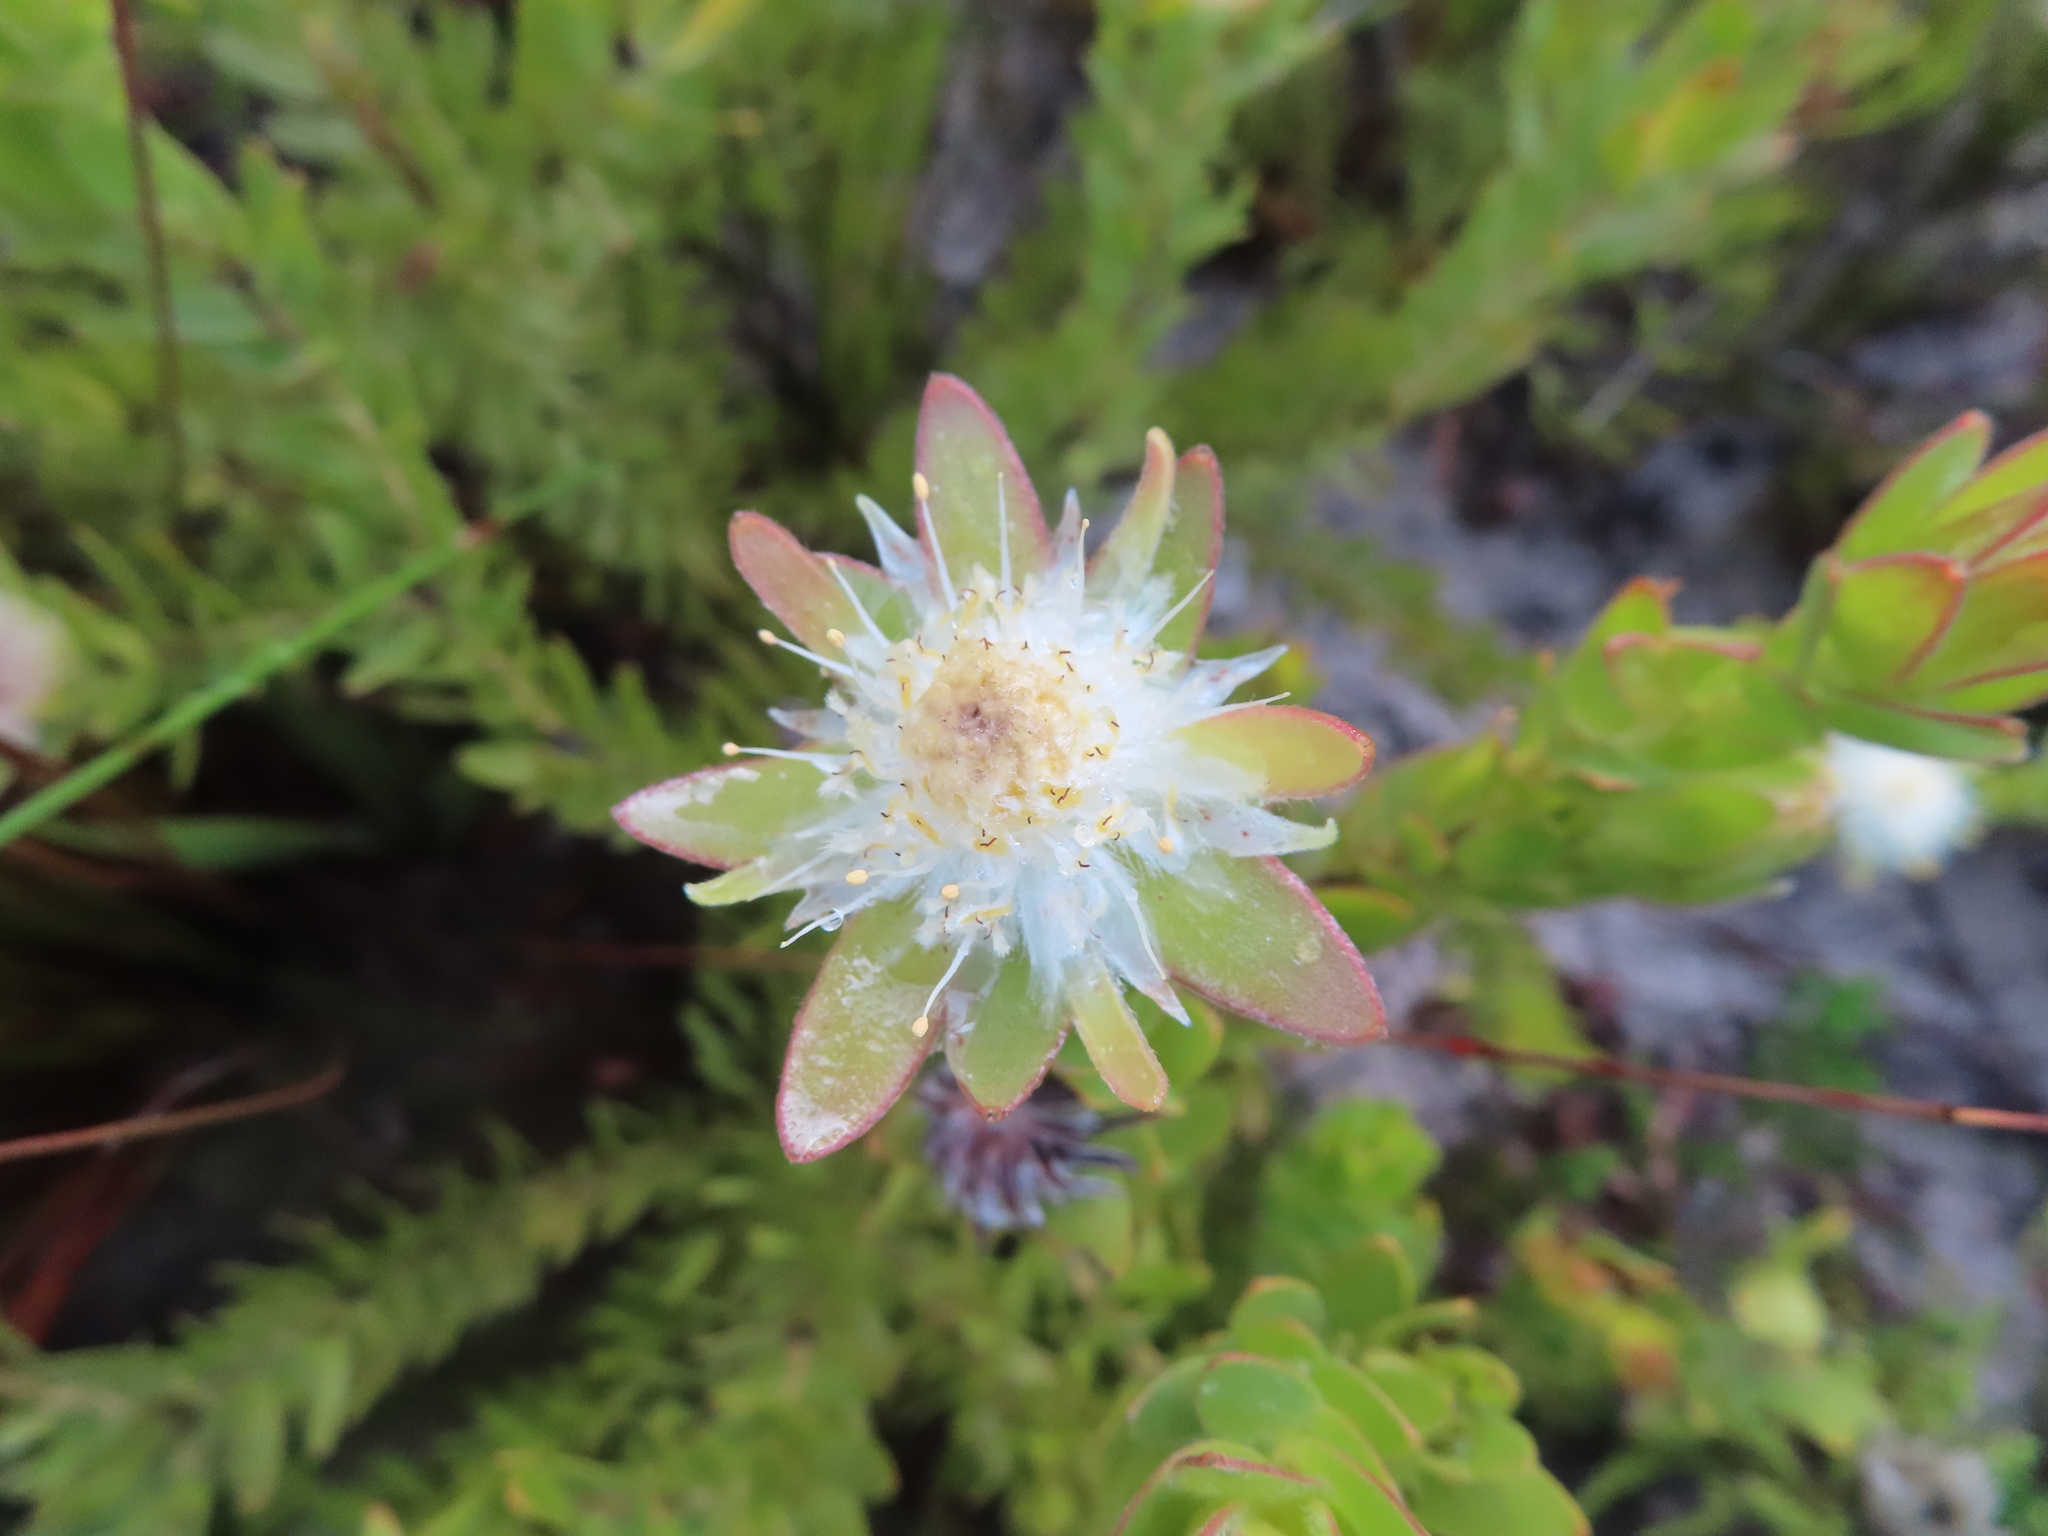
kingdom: Plantae
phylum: Tracheophyta
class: Magnoliopsida
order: Proteales
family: Proteaceae
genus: Diastella
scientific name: Diastella thymelaeoides
